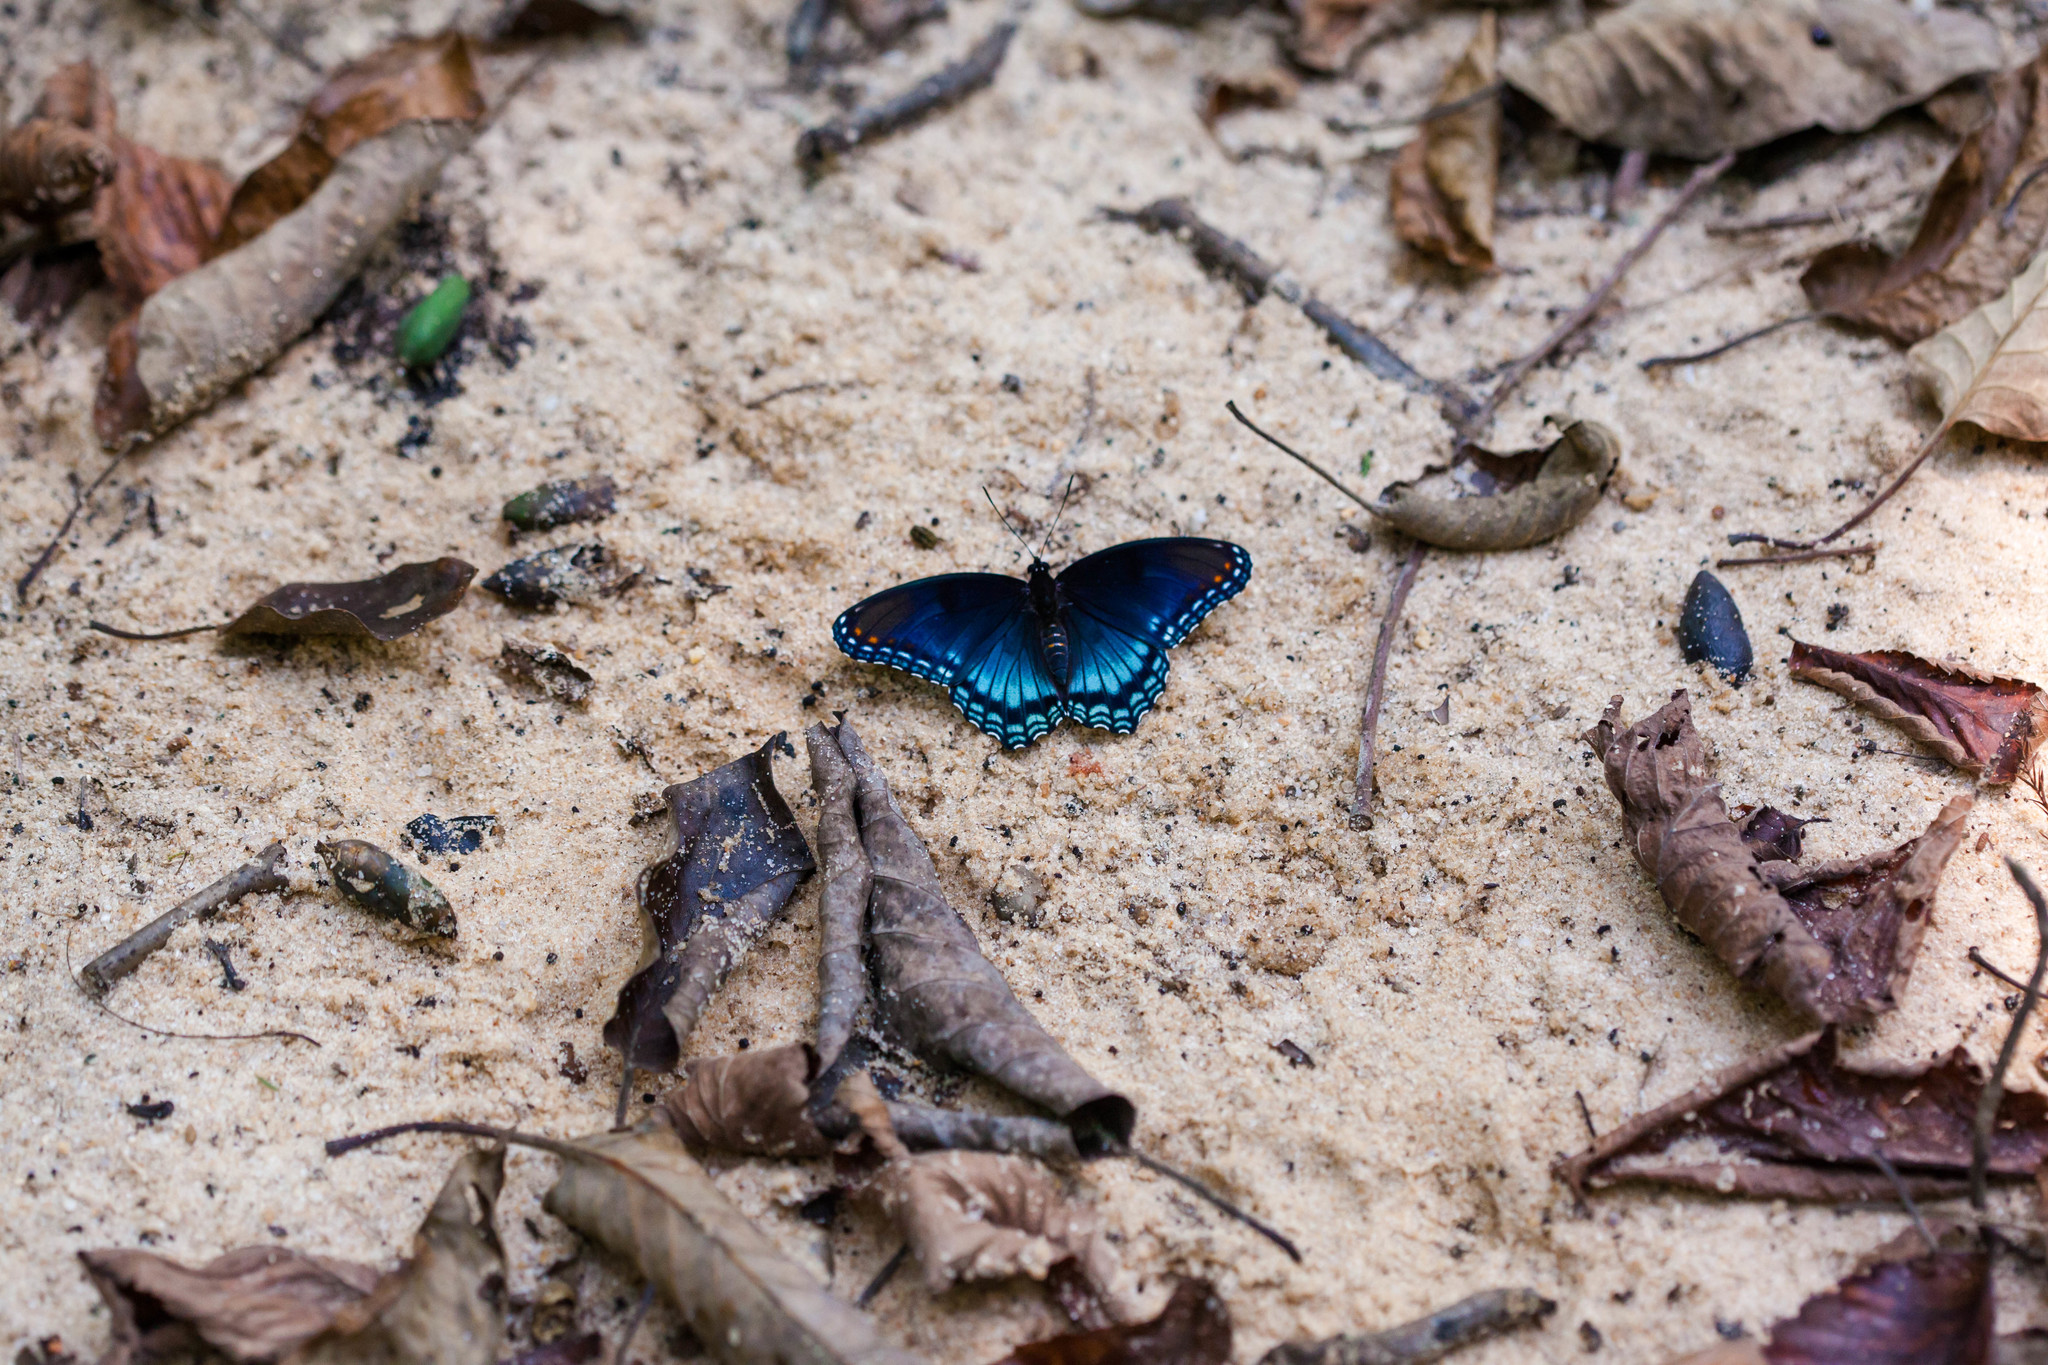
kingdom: Animalia
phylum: Arthropoda
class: Insecta
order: Lepidoptera
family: Nymphalidae
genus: Limenitis
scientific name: Limenitis astyanax
